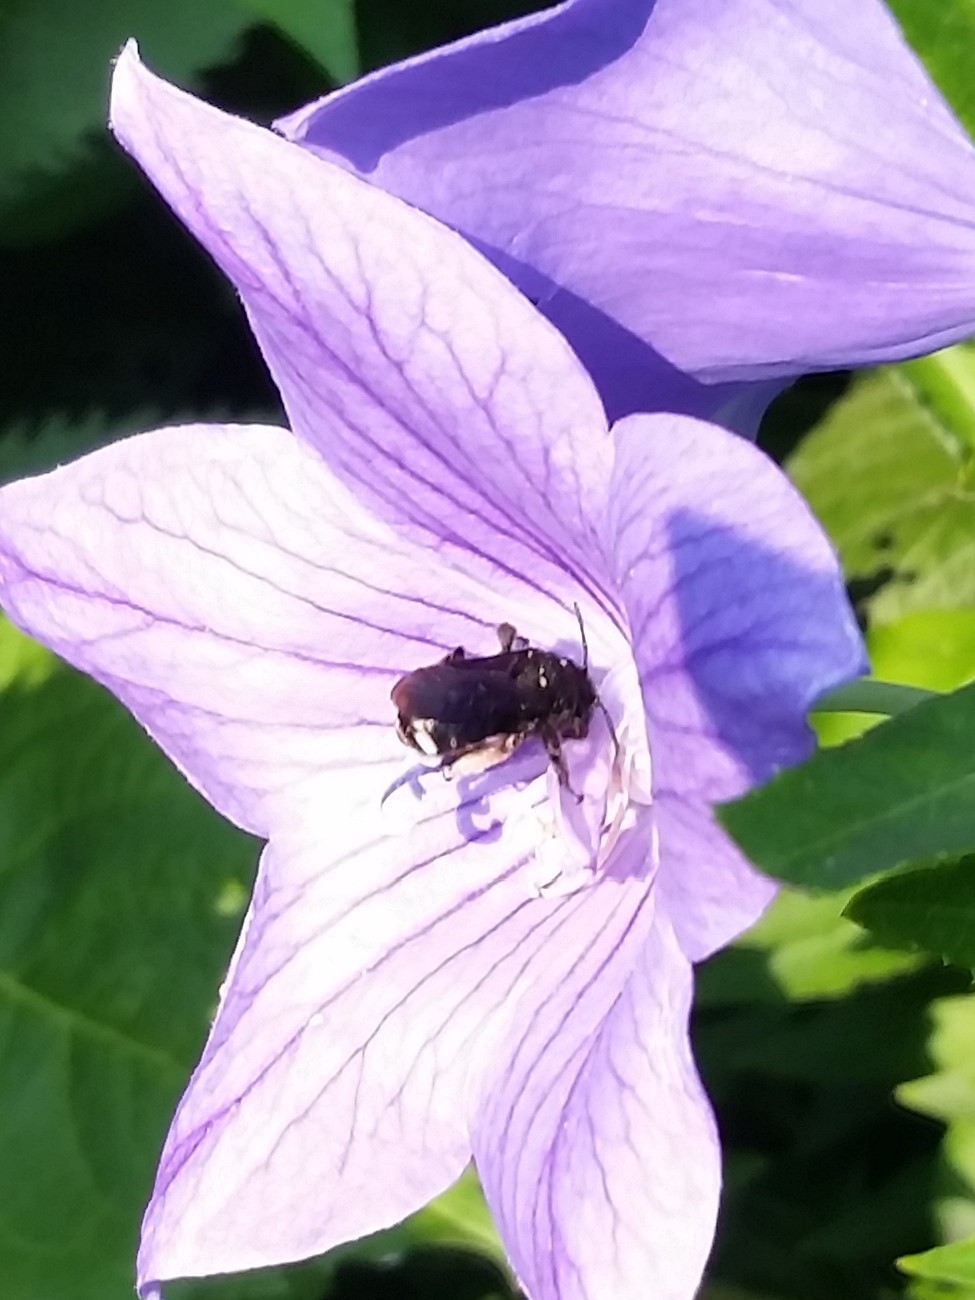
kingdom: Animalia
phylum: Arthropoda
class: Insecta
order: Hymenoptera
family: Apidae
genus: Melissodes
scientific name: Melissodes bimaculatus
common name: Two-spotted long-horned bee
